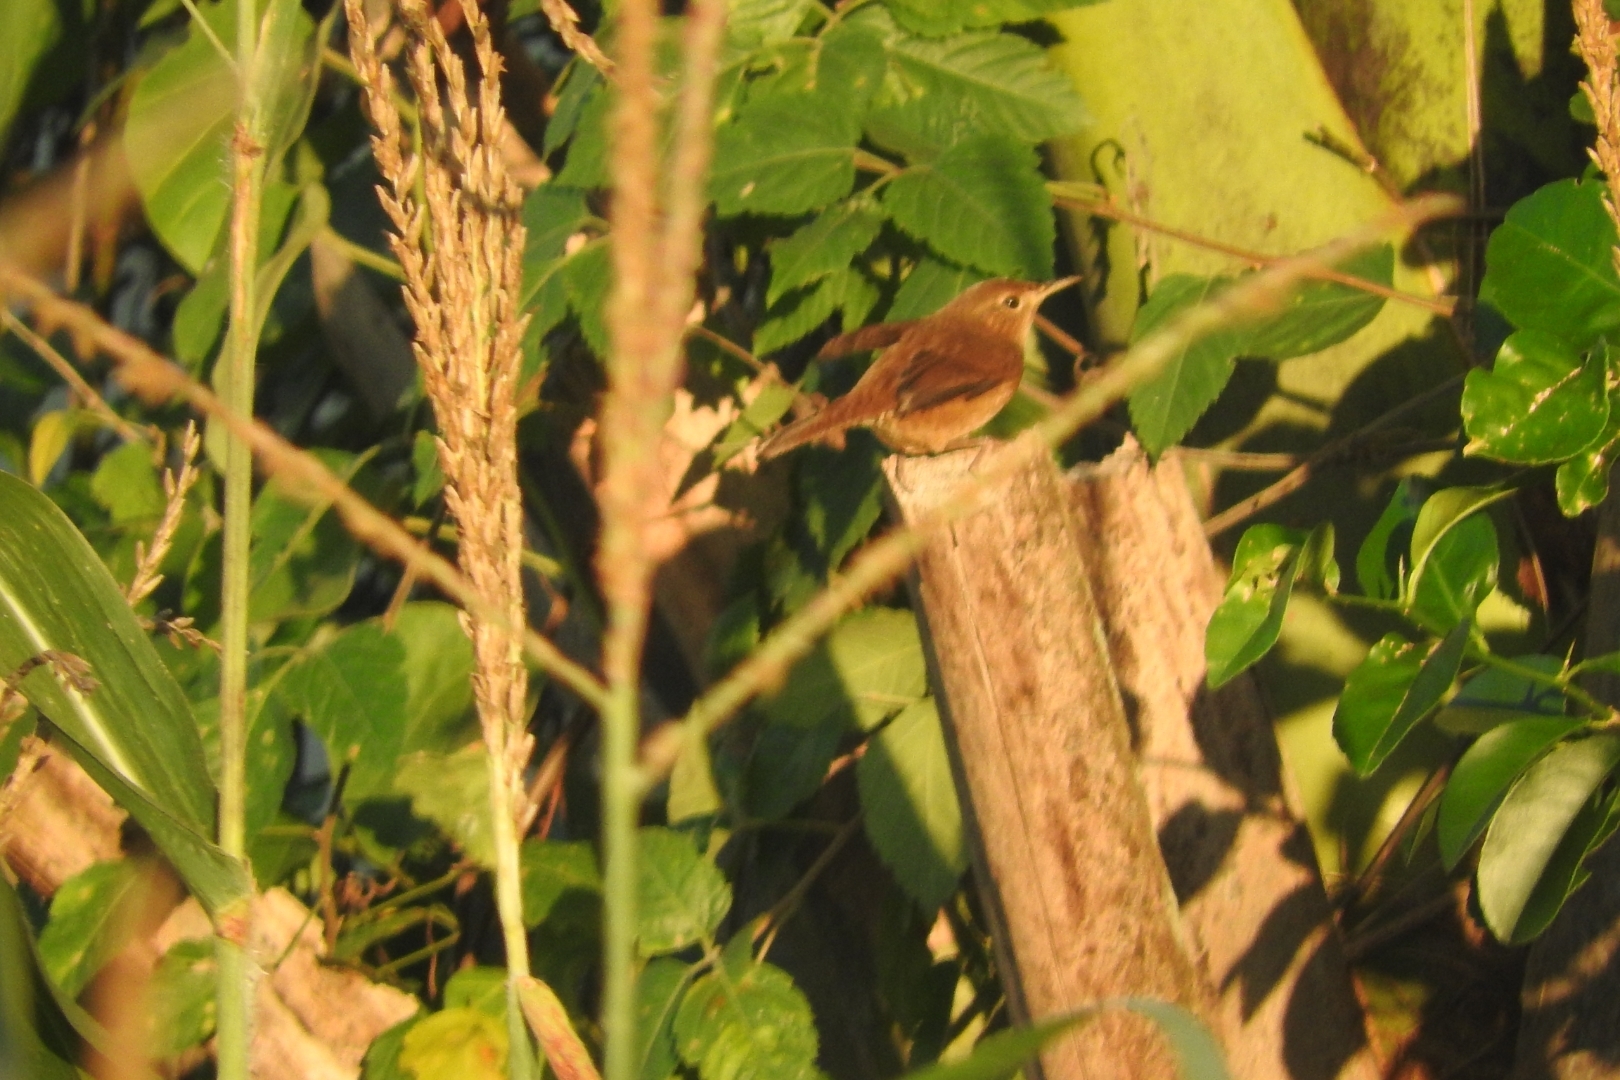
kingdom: Animalia
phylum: Chordata
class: Aves
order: Passeriformes
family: Troglodytidae
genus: Troglodytes
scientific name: Troglodytes aedon
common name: House wren
